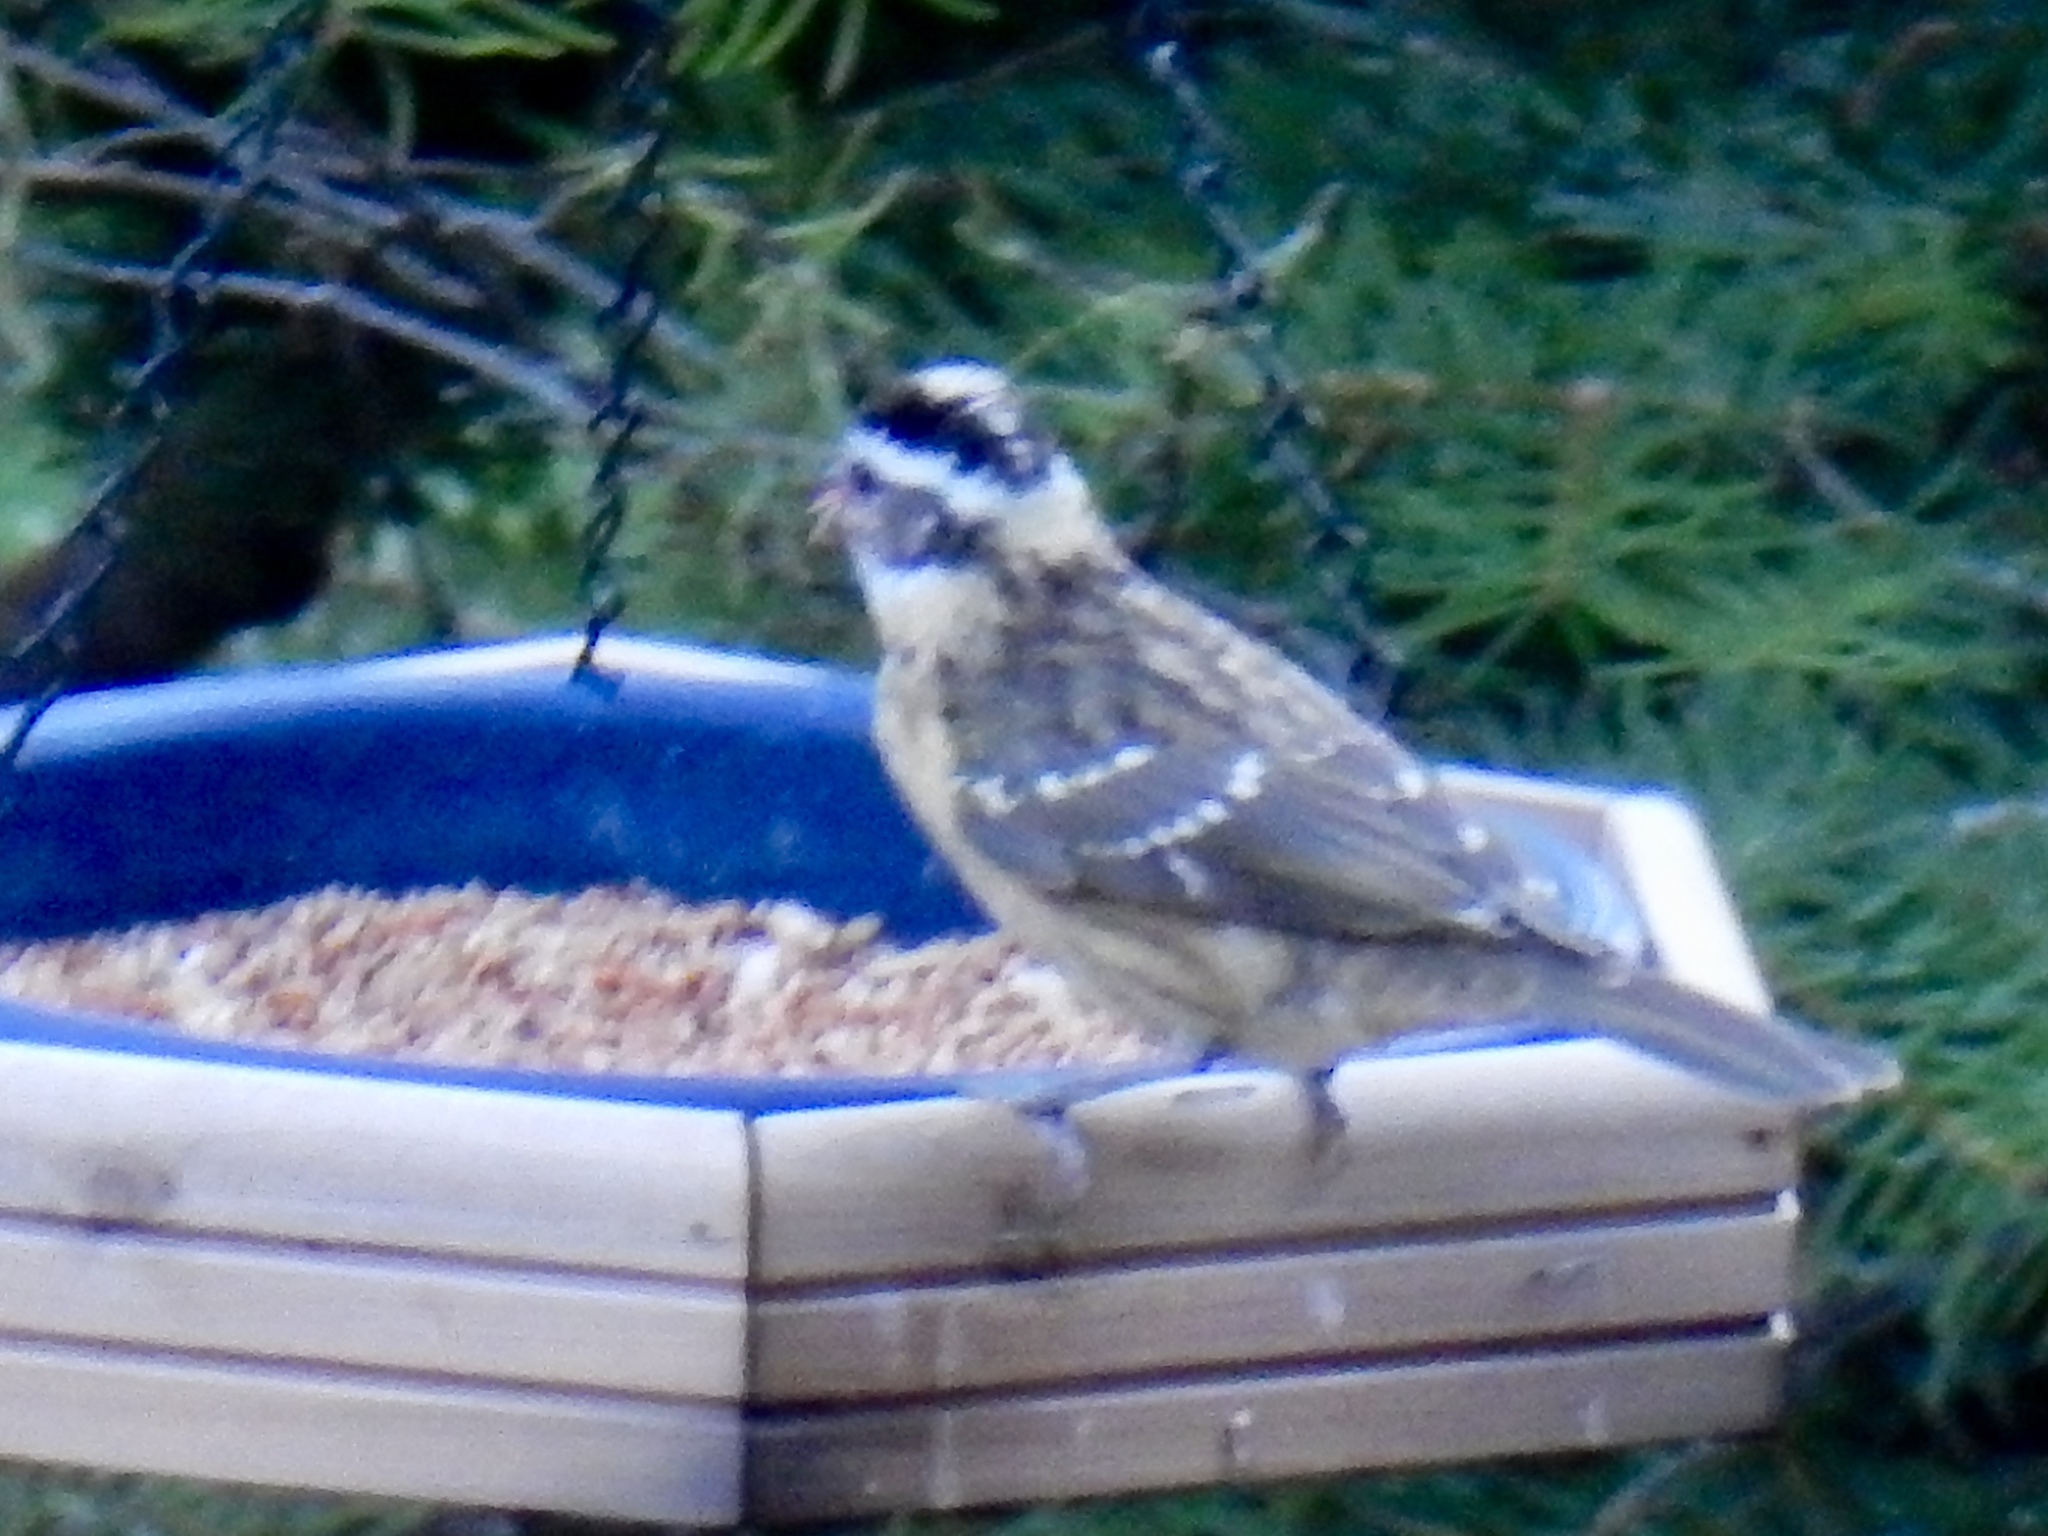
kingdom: Animalia
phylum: Chordata
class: Aves
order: Passeriformes
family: Cardinalidae
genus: Pheucticus
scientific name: Pheucticus melanocephalus
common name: Black-headed grosbeak
